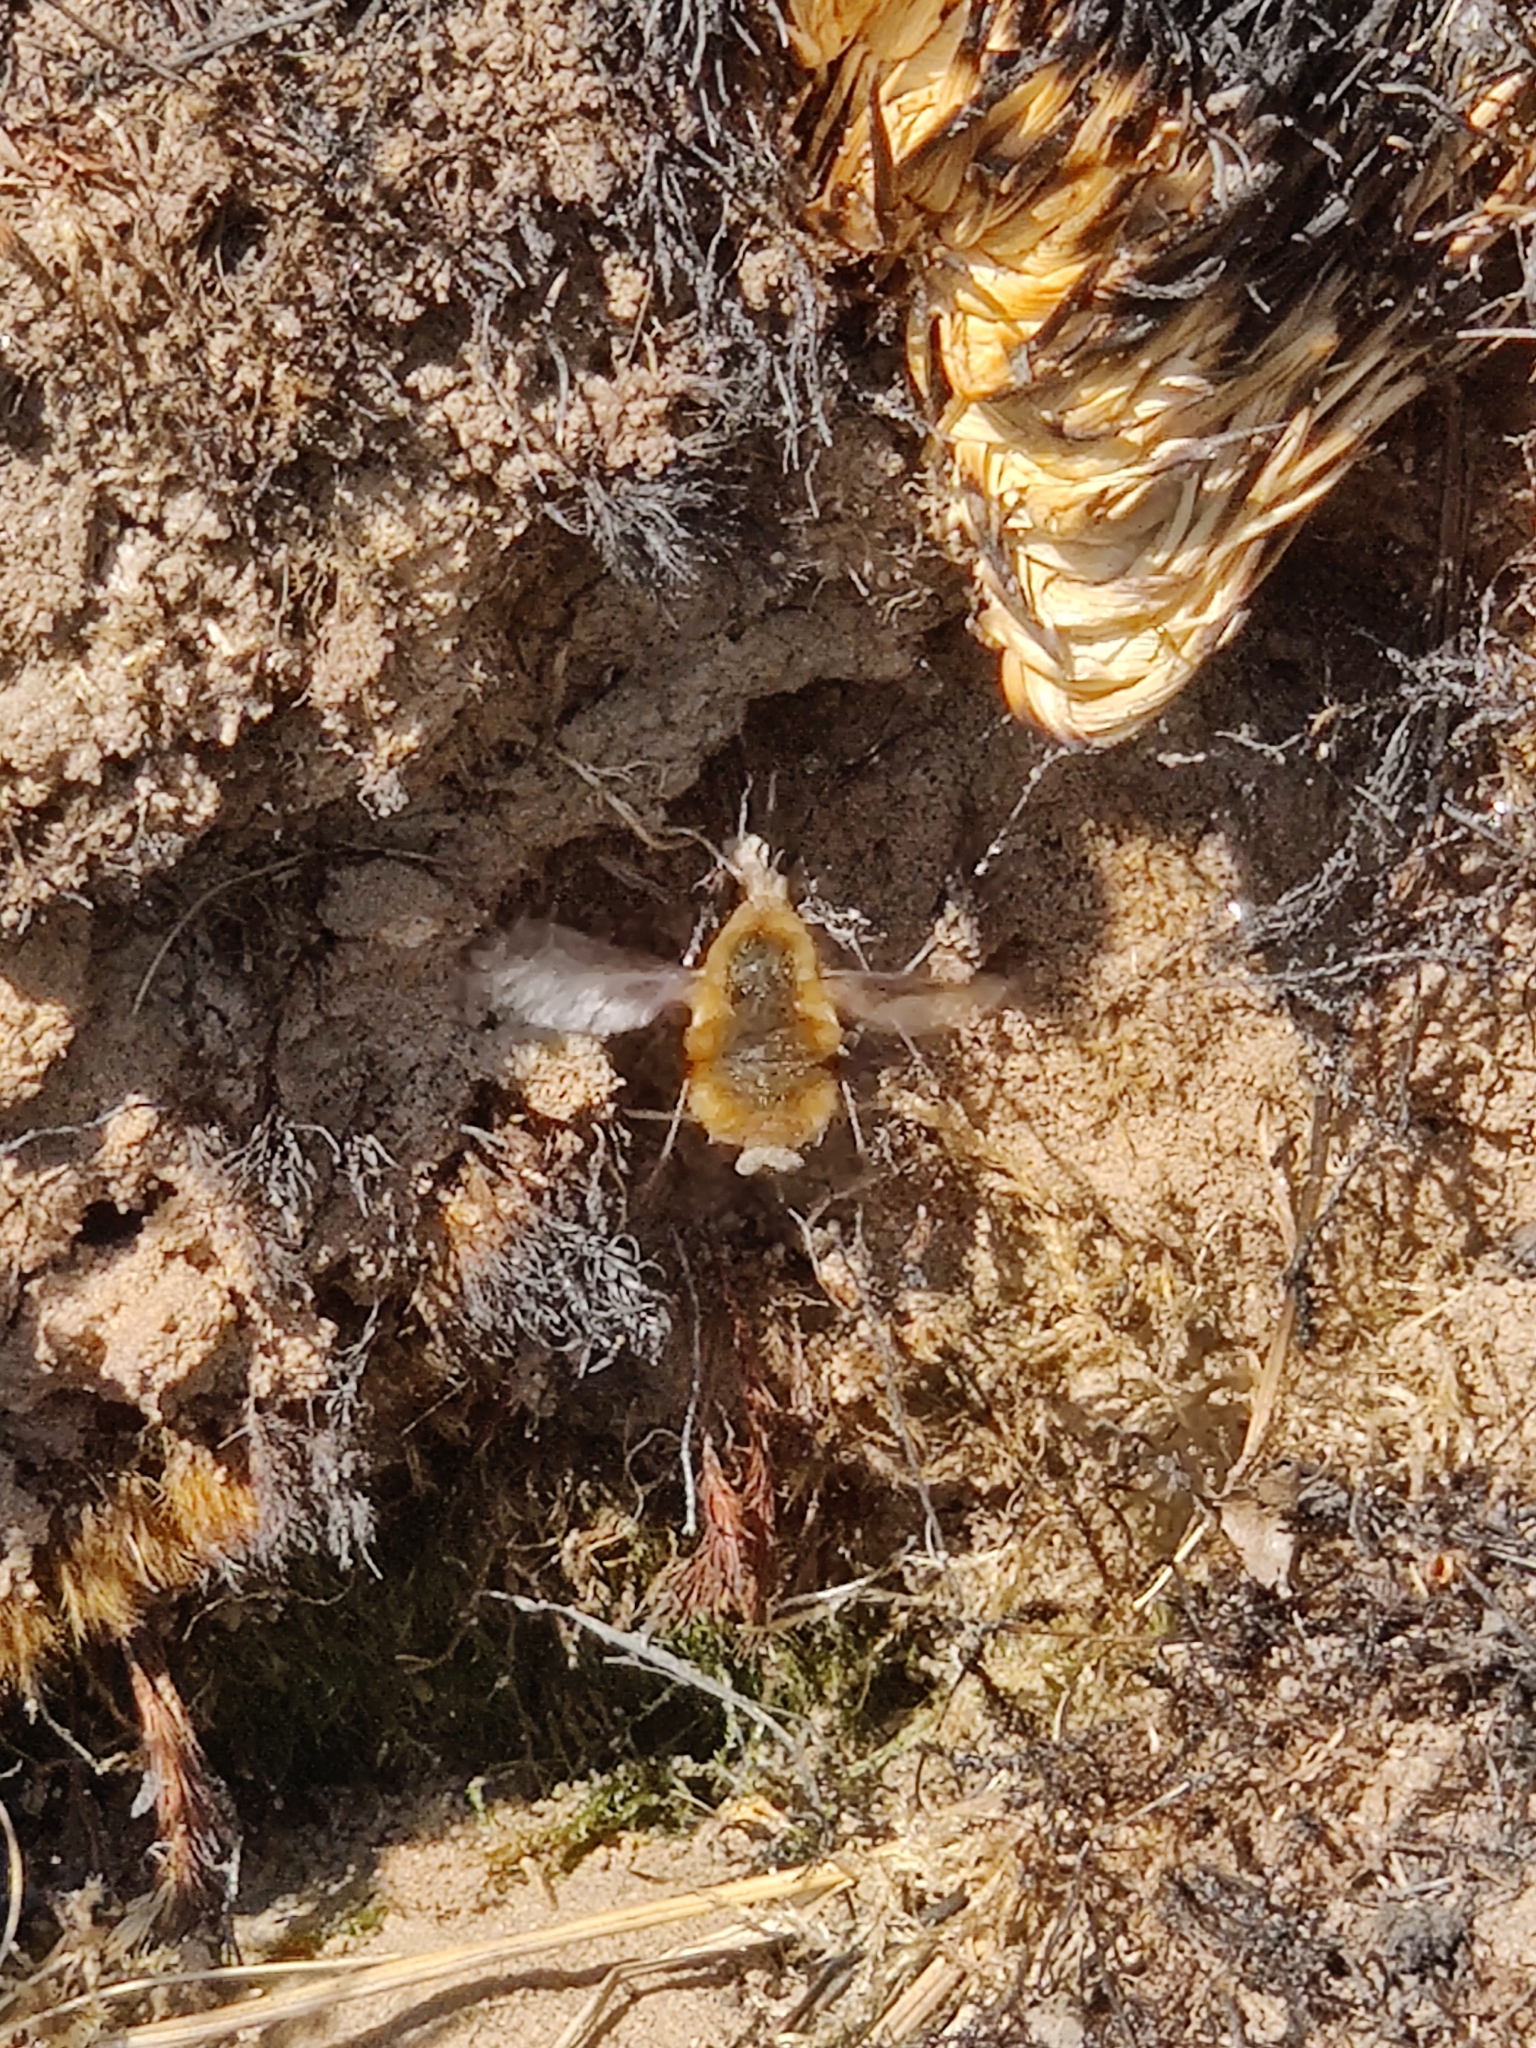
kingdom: Animalia
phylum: Arthropoda
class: Insecta
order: Diptera
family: Bombyliidae
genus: Bombylius
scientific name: Bombylius major
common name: Bee fly
